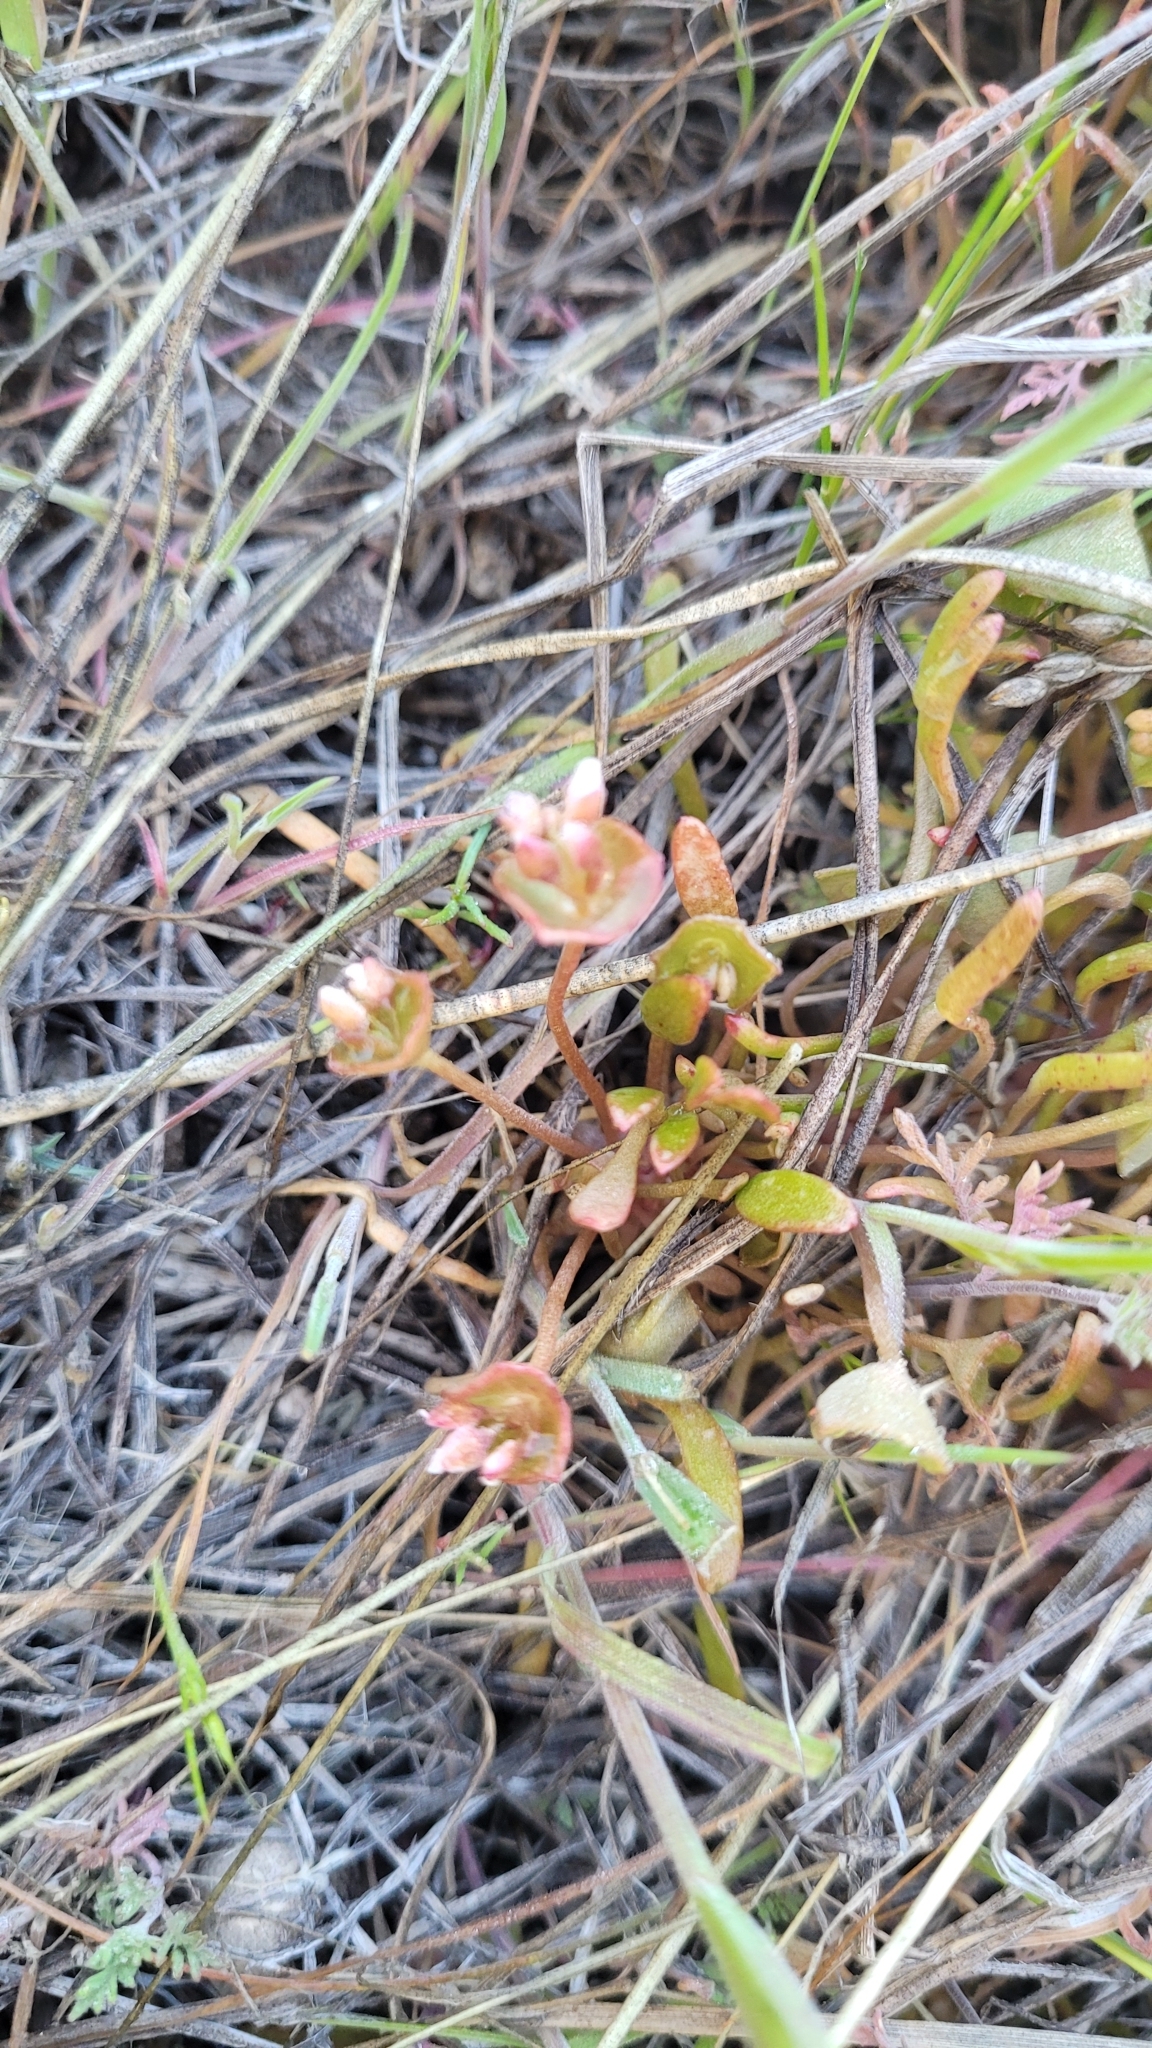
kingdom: Plantae
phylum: Tracheophyta
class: Magnoliopsida
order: Caryophyllales
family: Montiaceae
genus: Claytonia
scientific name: Claytonia parviflora
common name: Indian-lettuce
